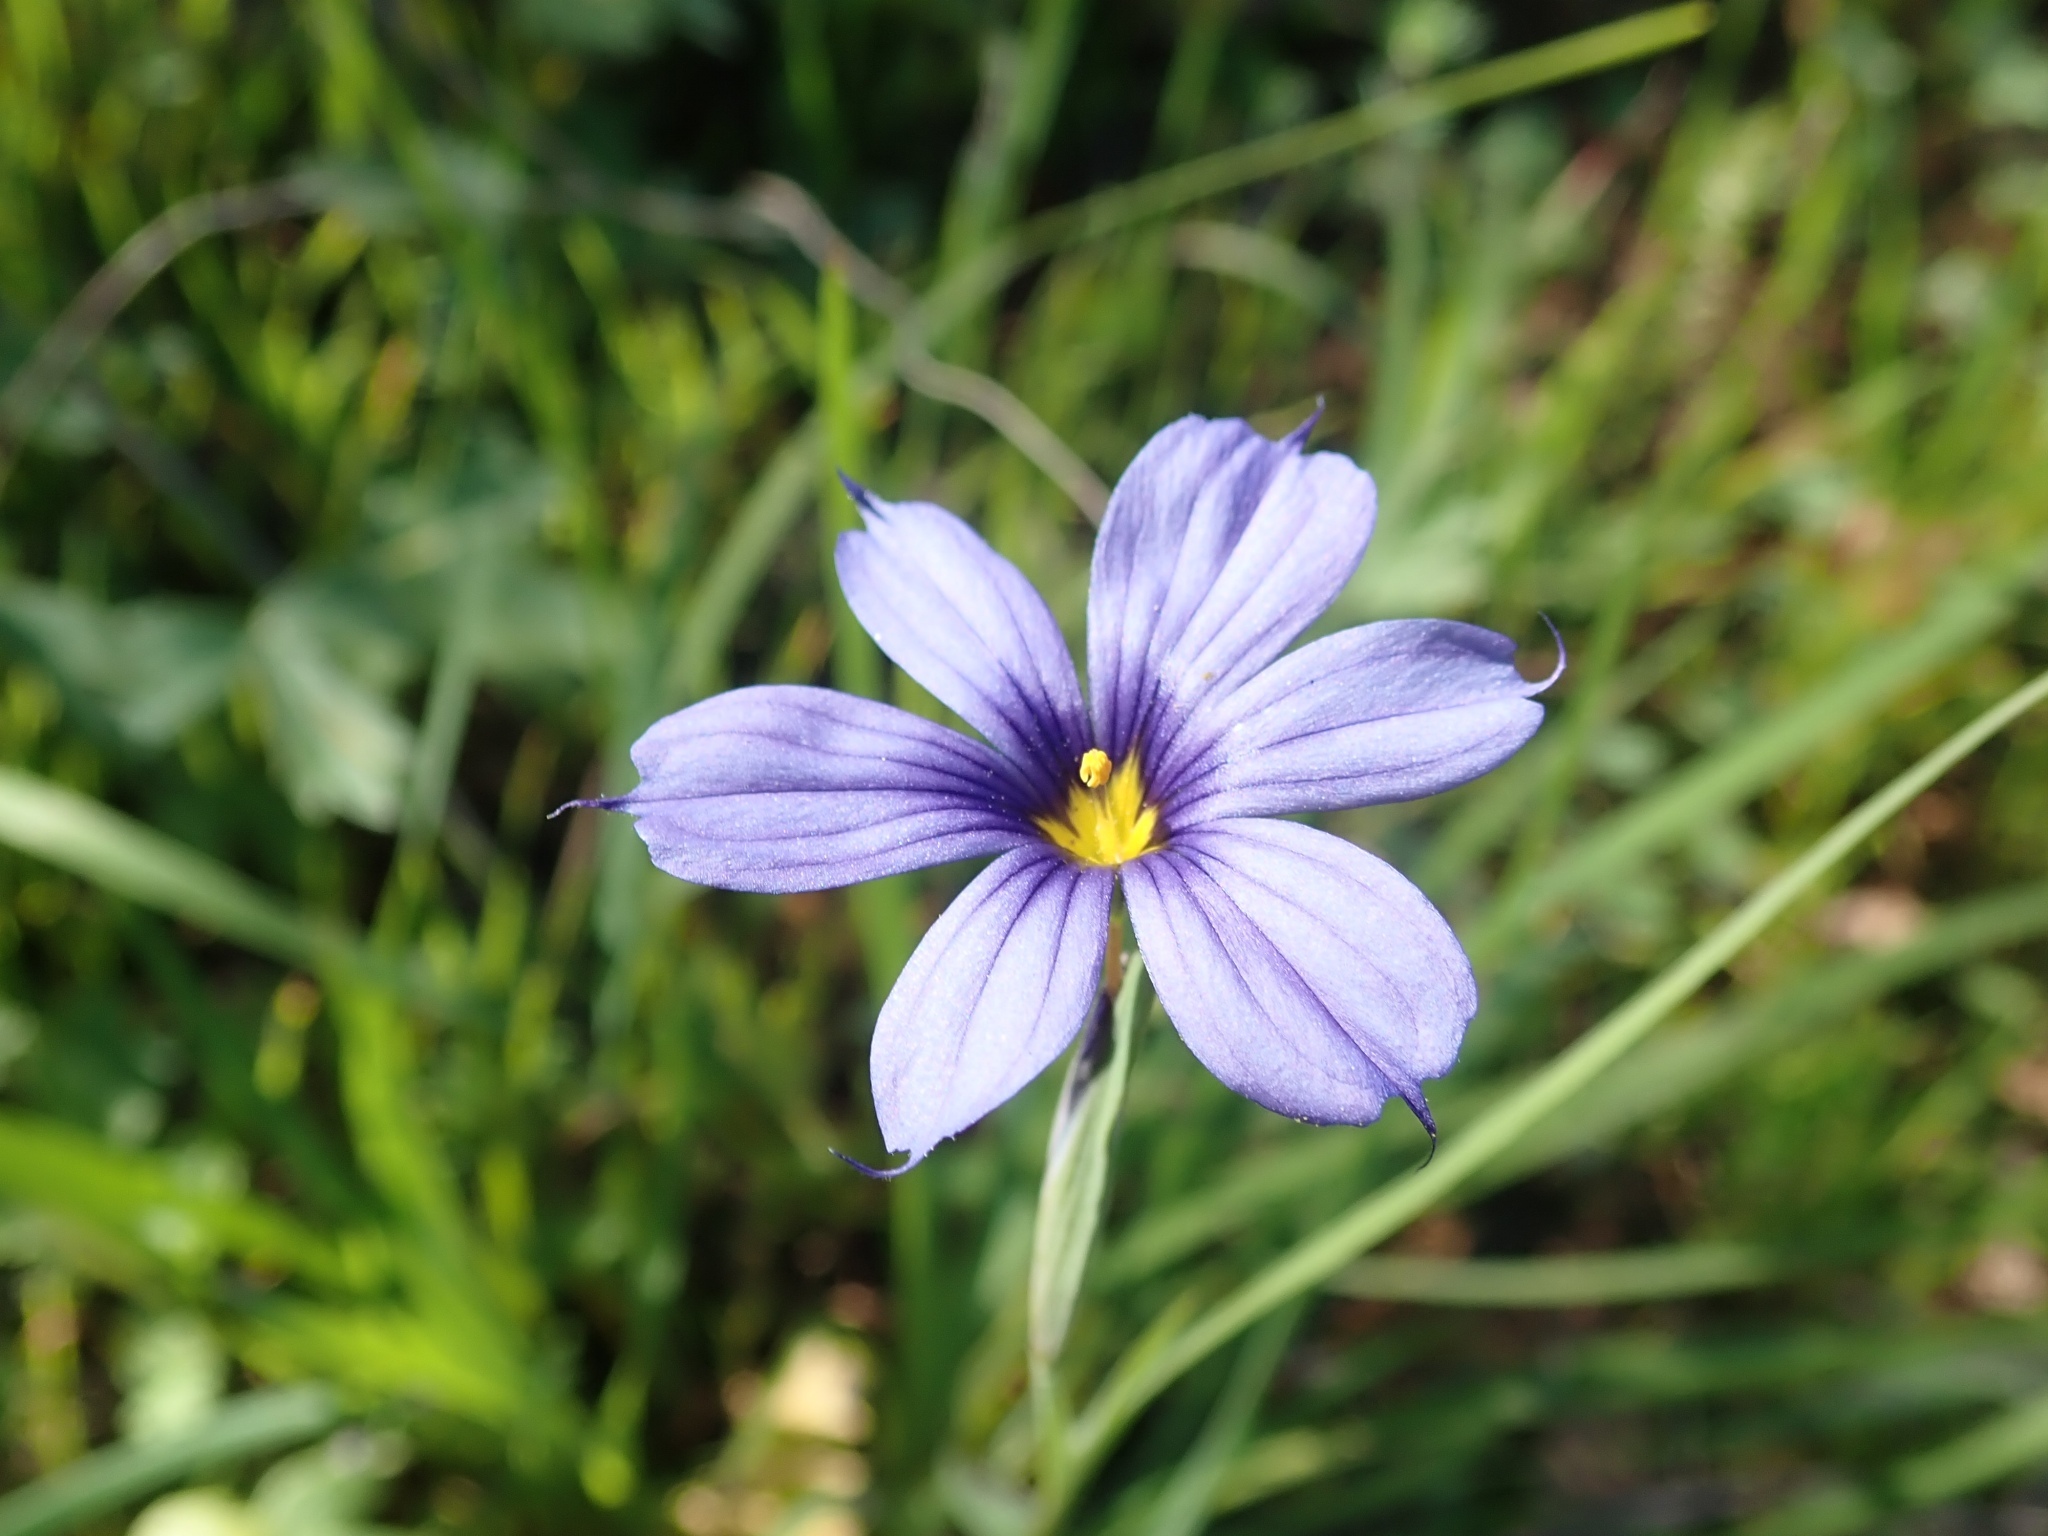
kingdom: Plantae
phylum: Tracheophyta
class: Liliopsida
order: Asparagales
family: Iridaceae
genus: Sisyrinchium
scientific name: Sisyrinchium bellum
